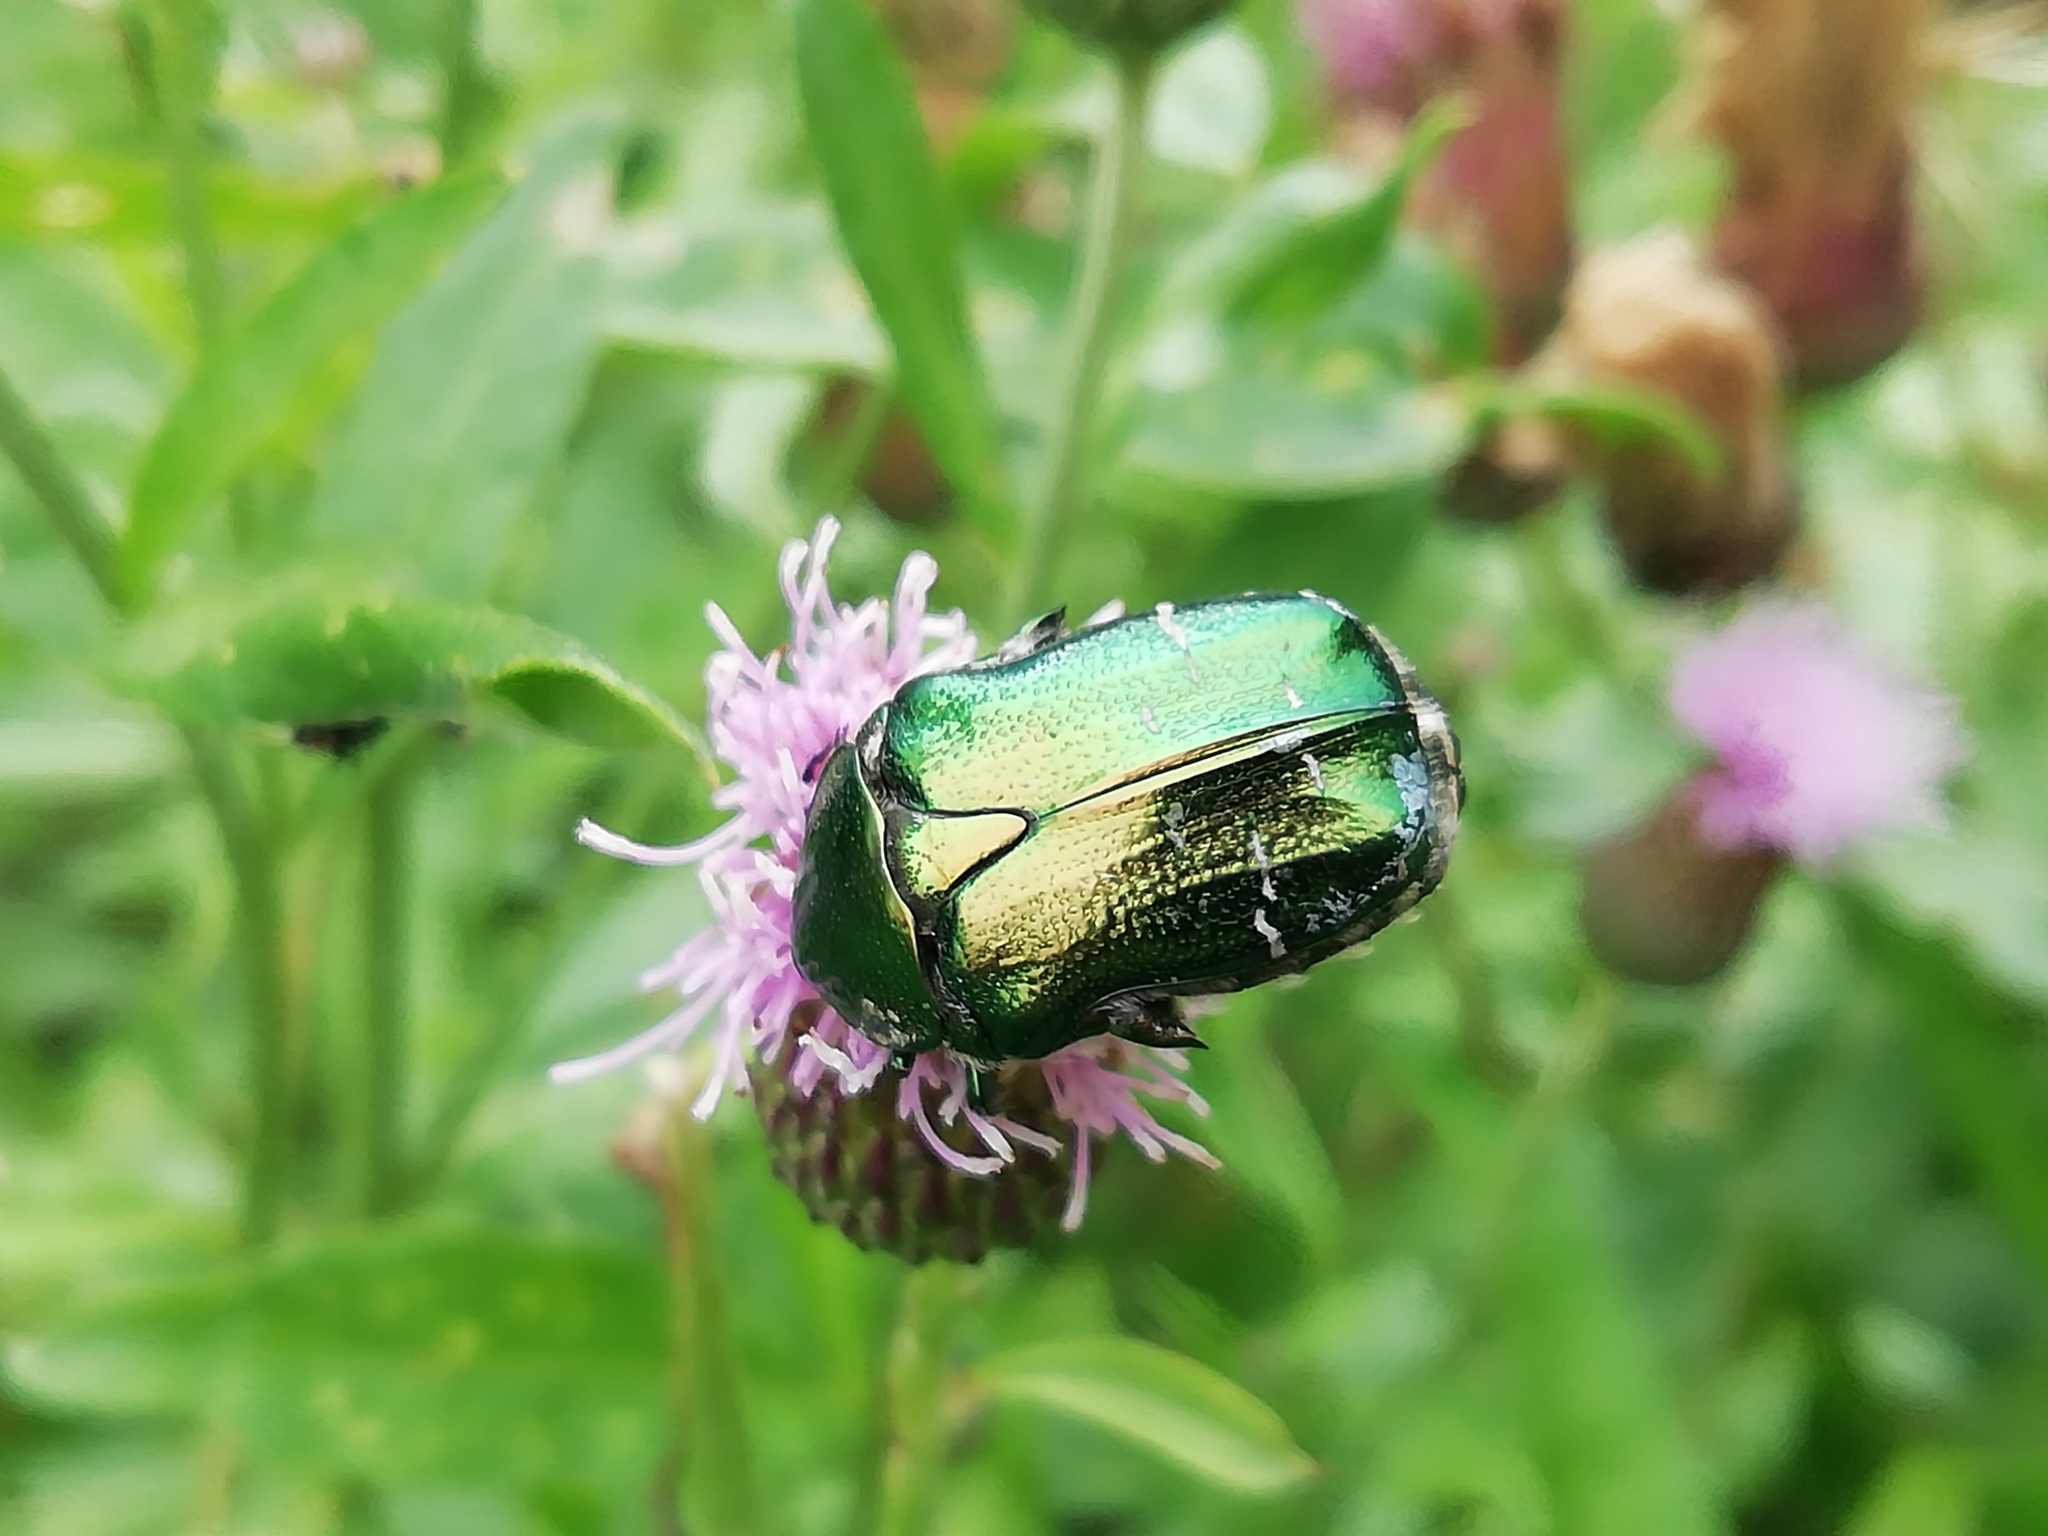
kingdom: Animalia
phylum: Arthropoda
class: Insecta
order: Coleoptera
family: Scarabaeidae
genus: Cetonia
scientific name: Cetonia aurata
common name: Rose chafer
